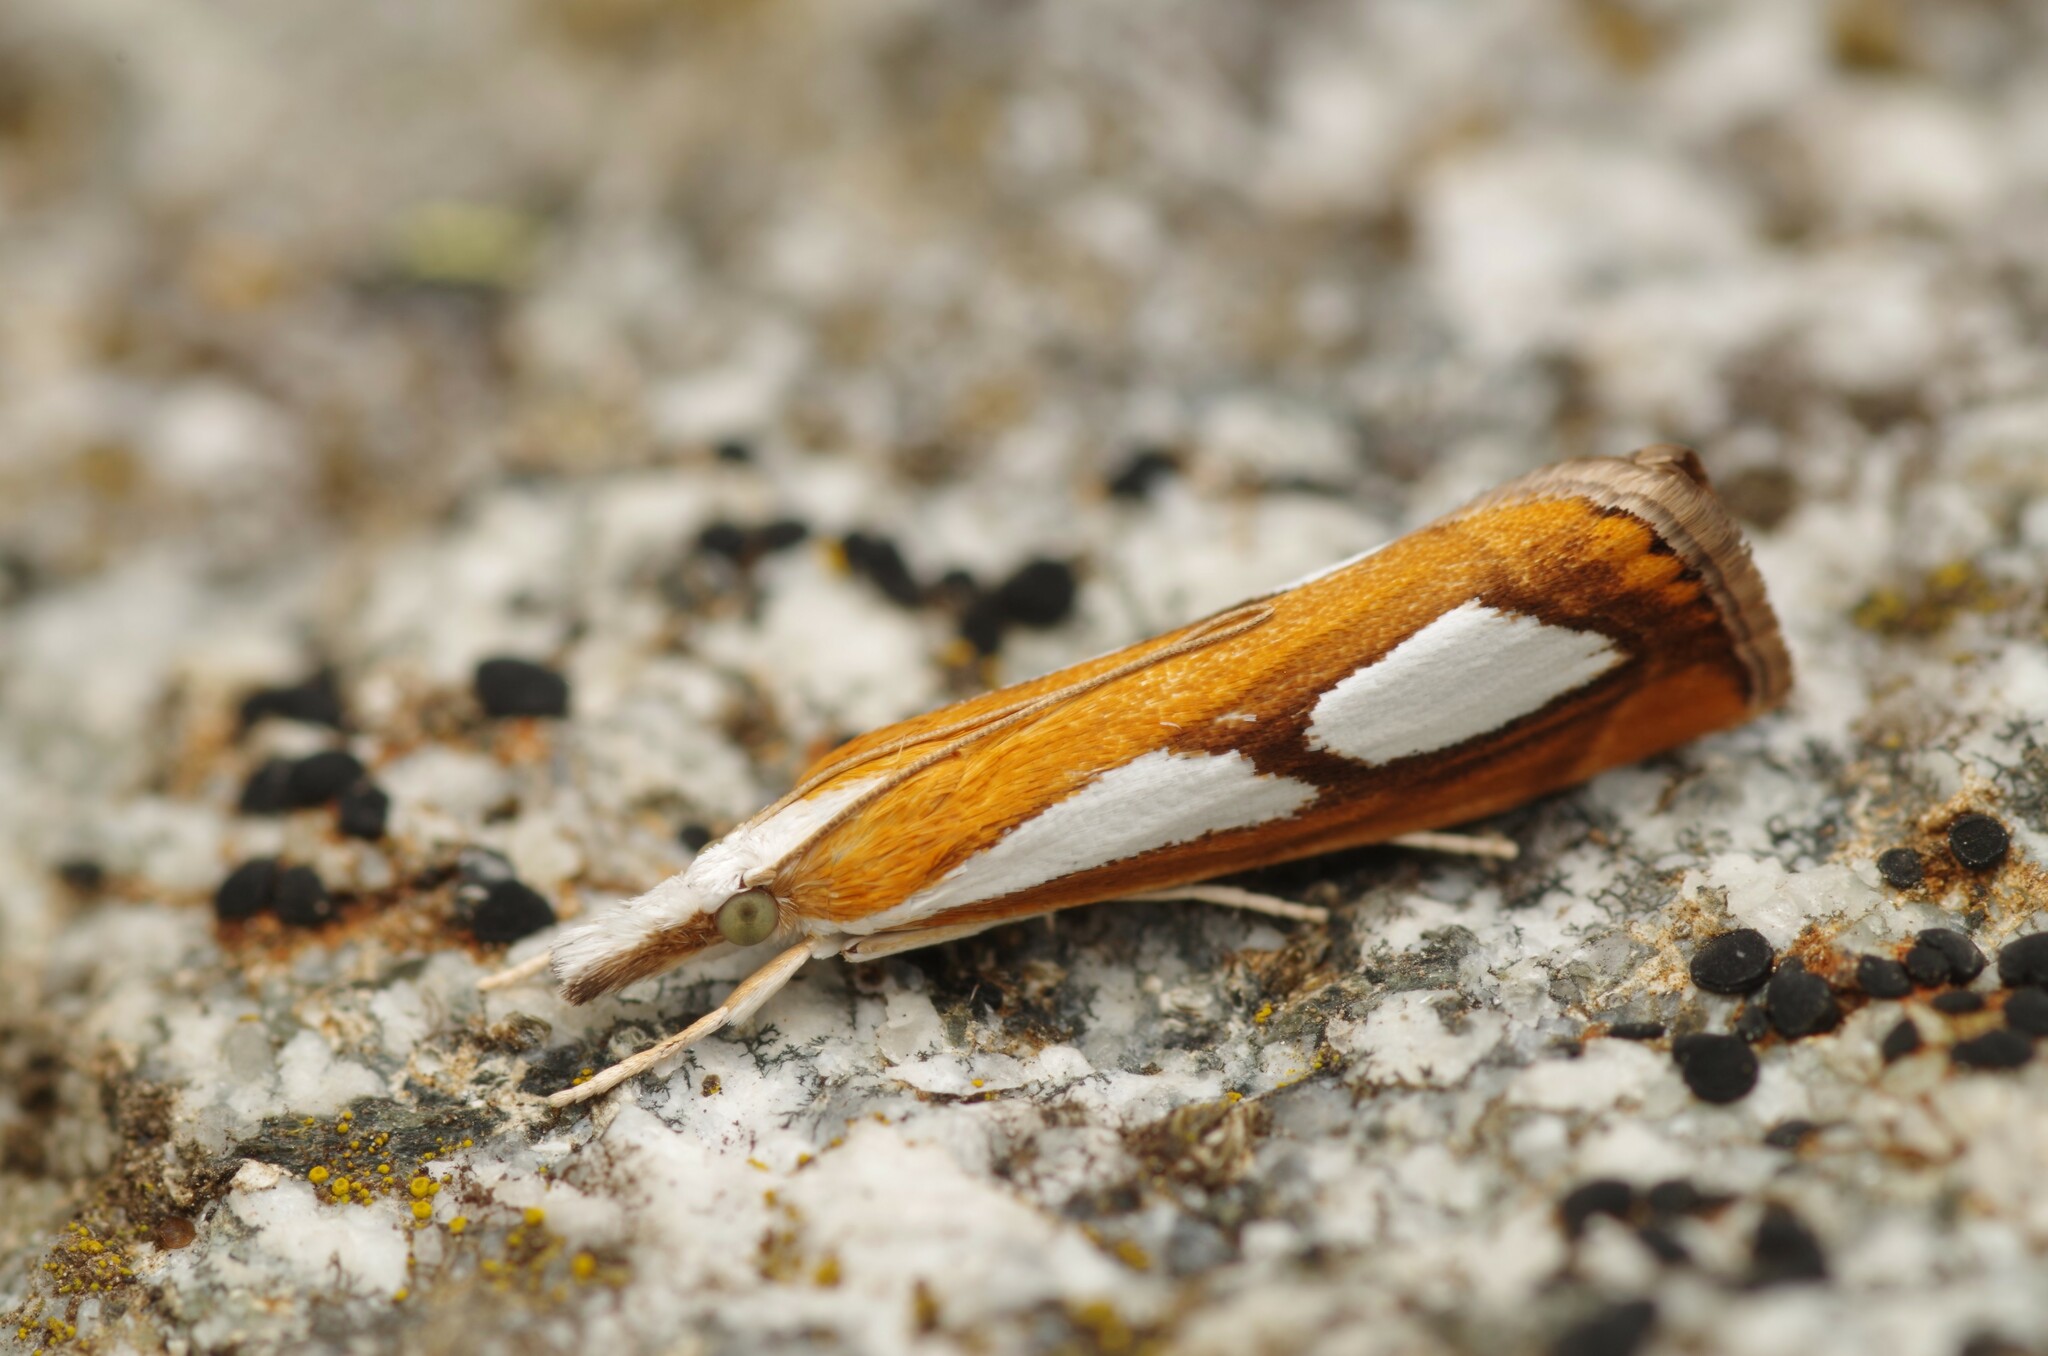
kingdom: Animalia
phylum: Arthropoda
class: Insecta
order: Lepidoptera
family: Crambidae
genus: Catoptria
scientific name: Catoptria pinella
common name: Pearl grass-veneer
